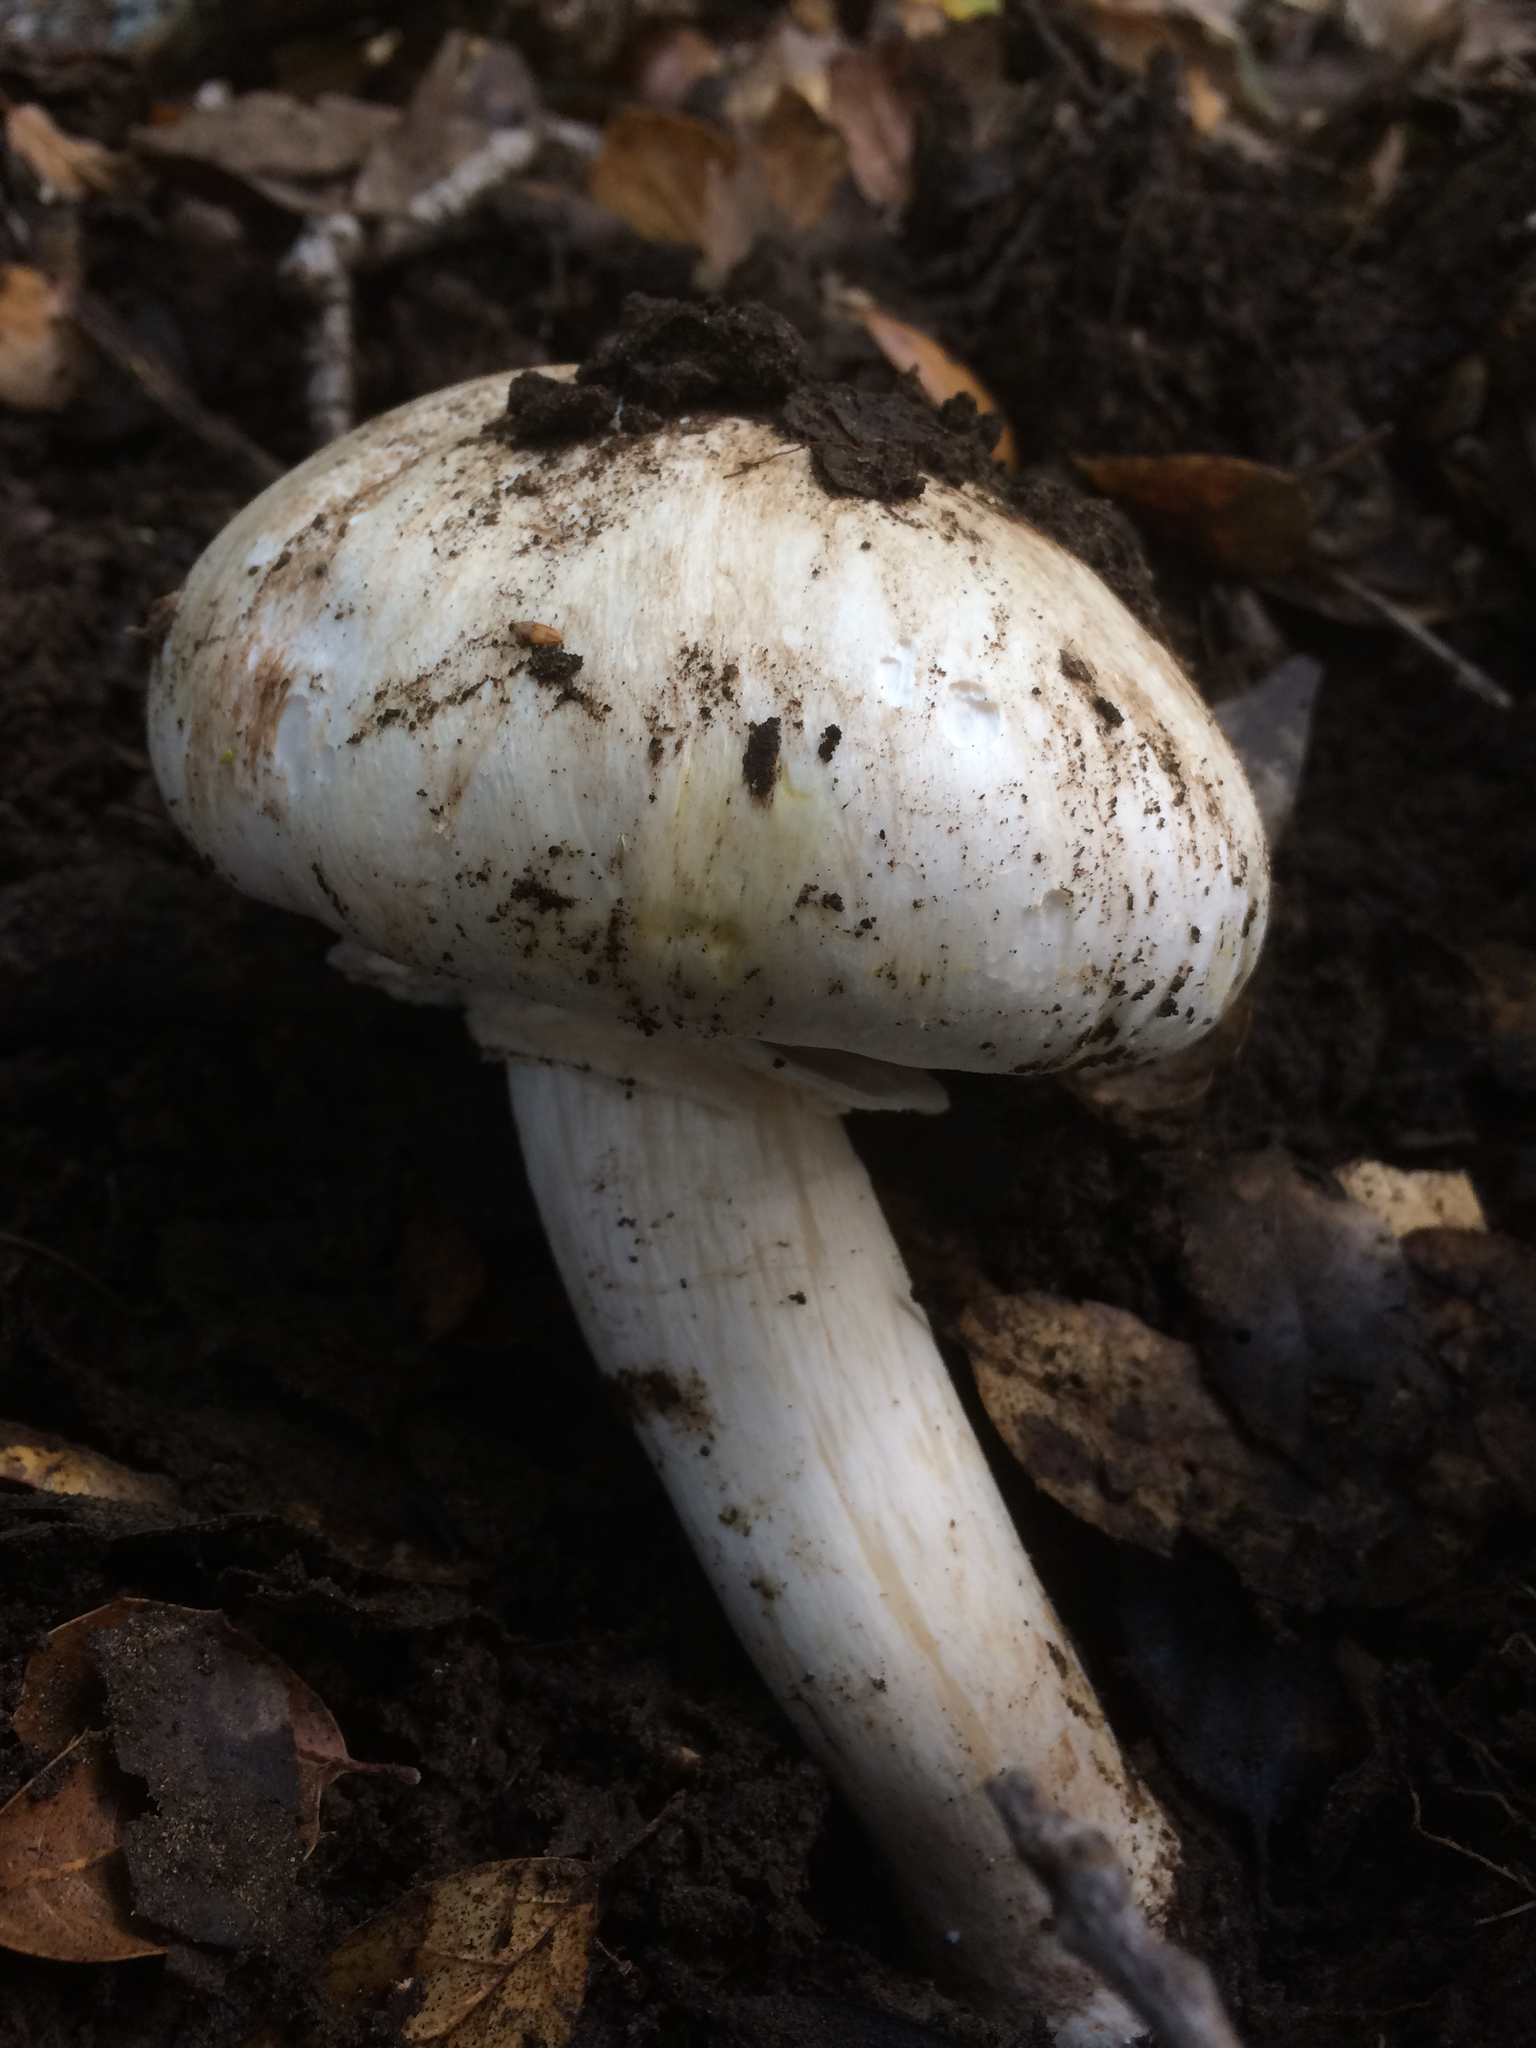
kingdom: Fungi
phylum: Basidiomycota
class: Agaricomycetes
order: Agaricales
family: Agaricaceae
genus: Agaricus
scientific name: Agaricus xanthodermus
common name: Yellow stainer
